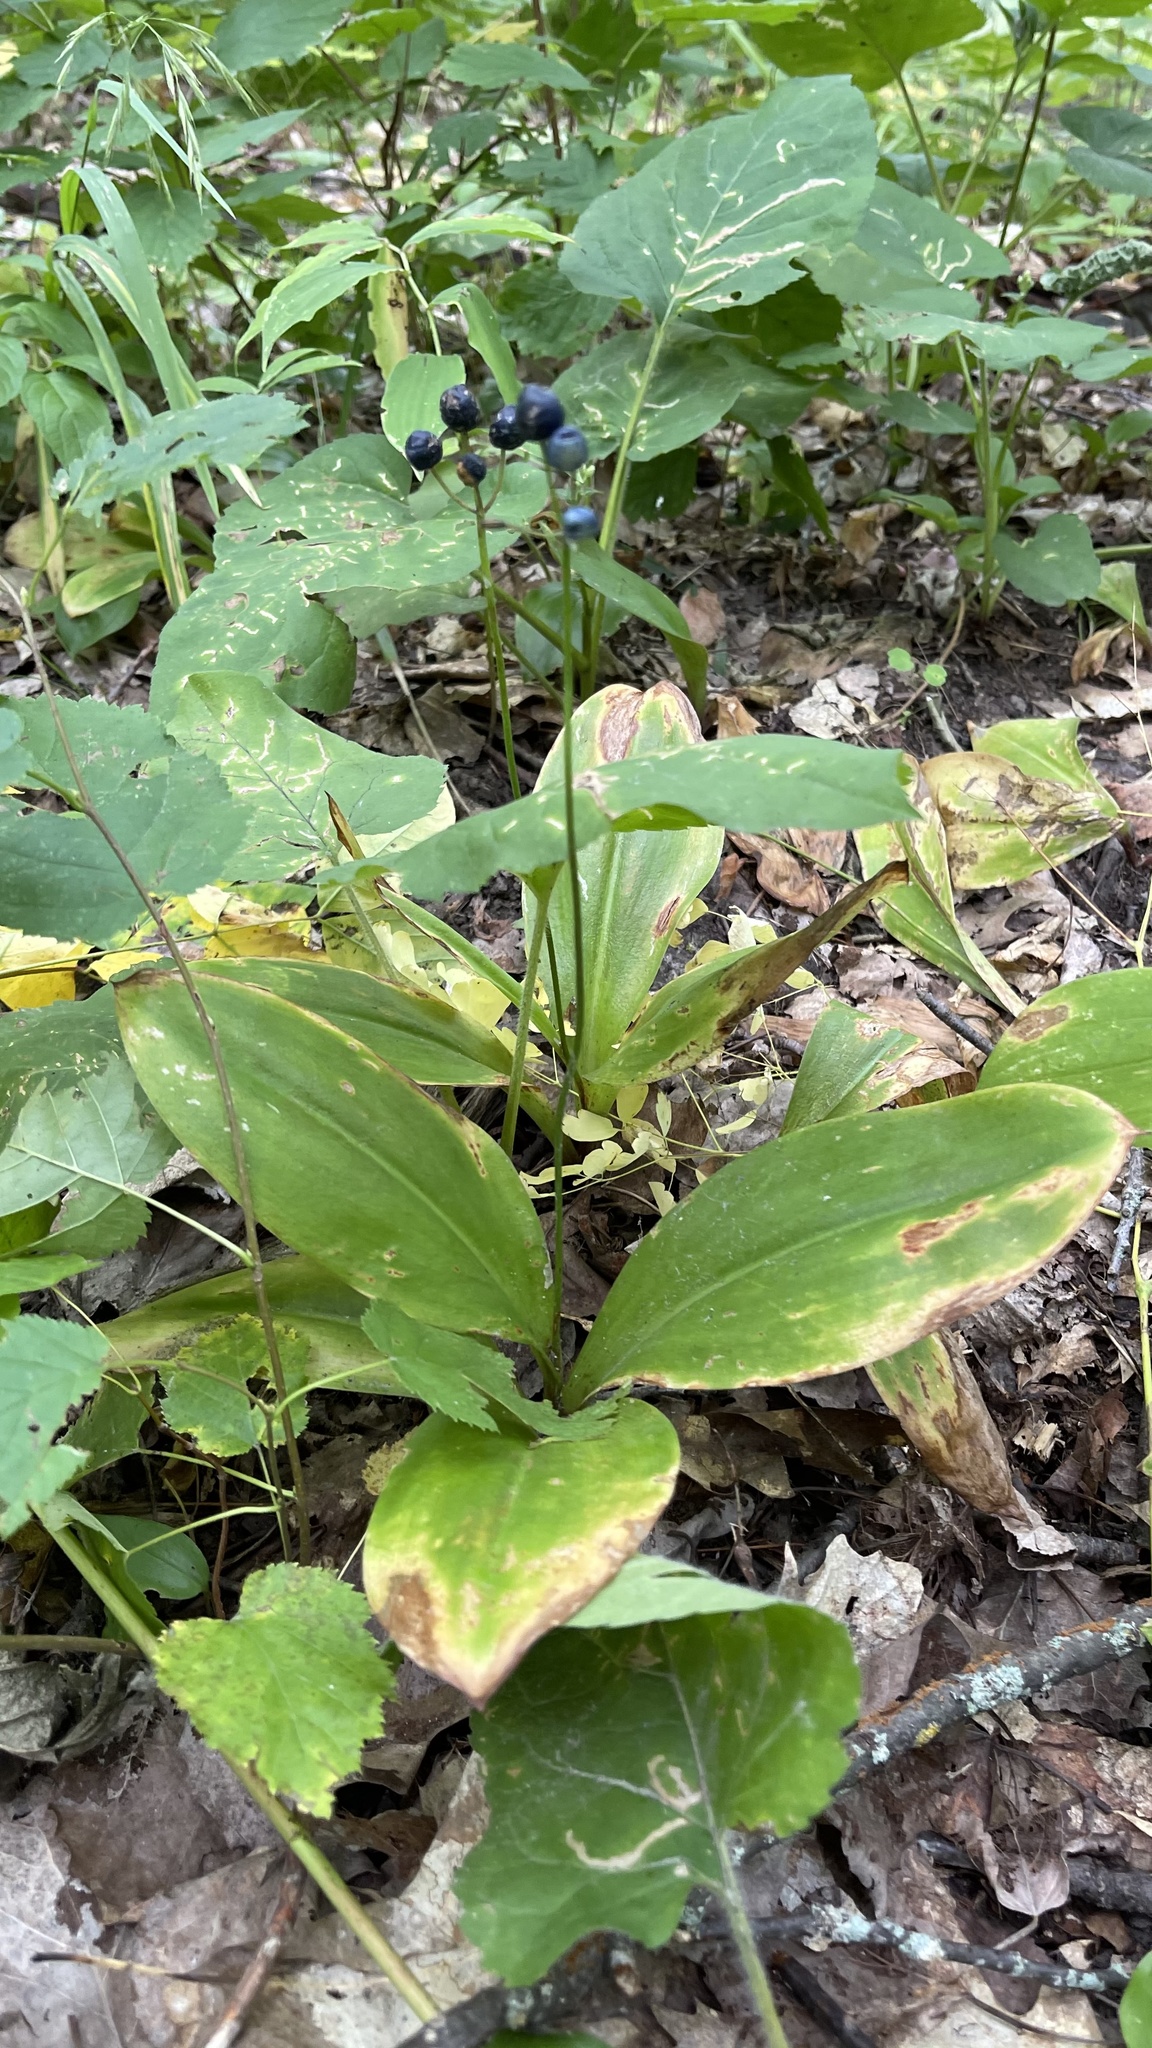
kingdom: Plantae
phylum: Tracheophyta
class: Liliopsida
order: Liliales
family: Liliaceae
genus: Clintonia
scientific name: Clintonia borealis
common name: Yellow clintonia
